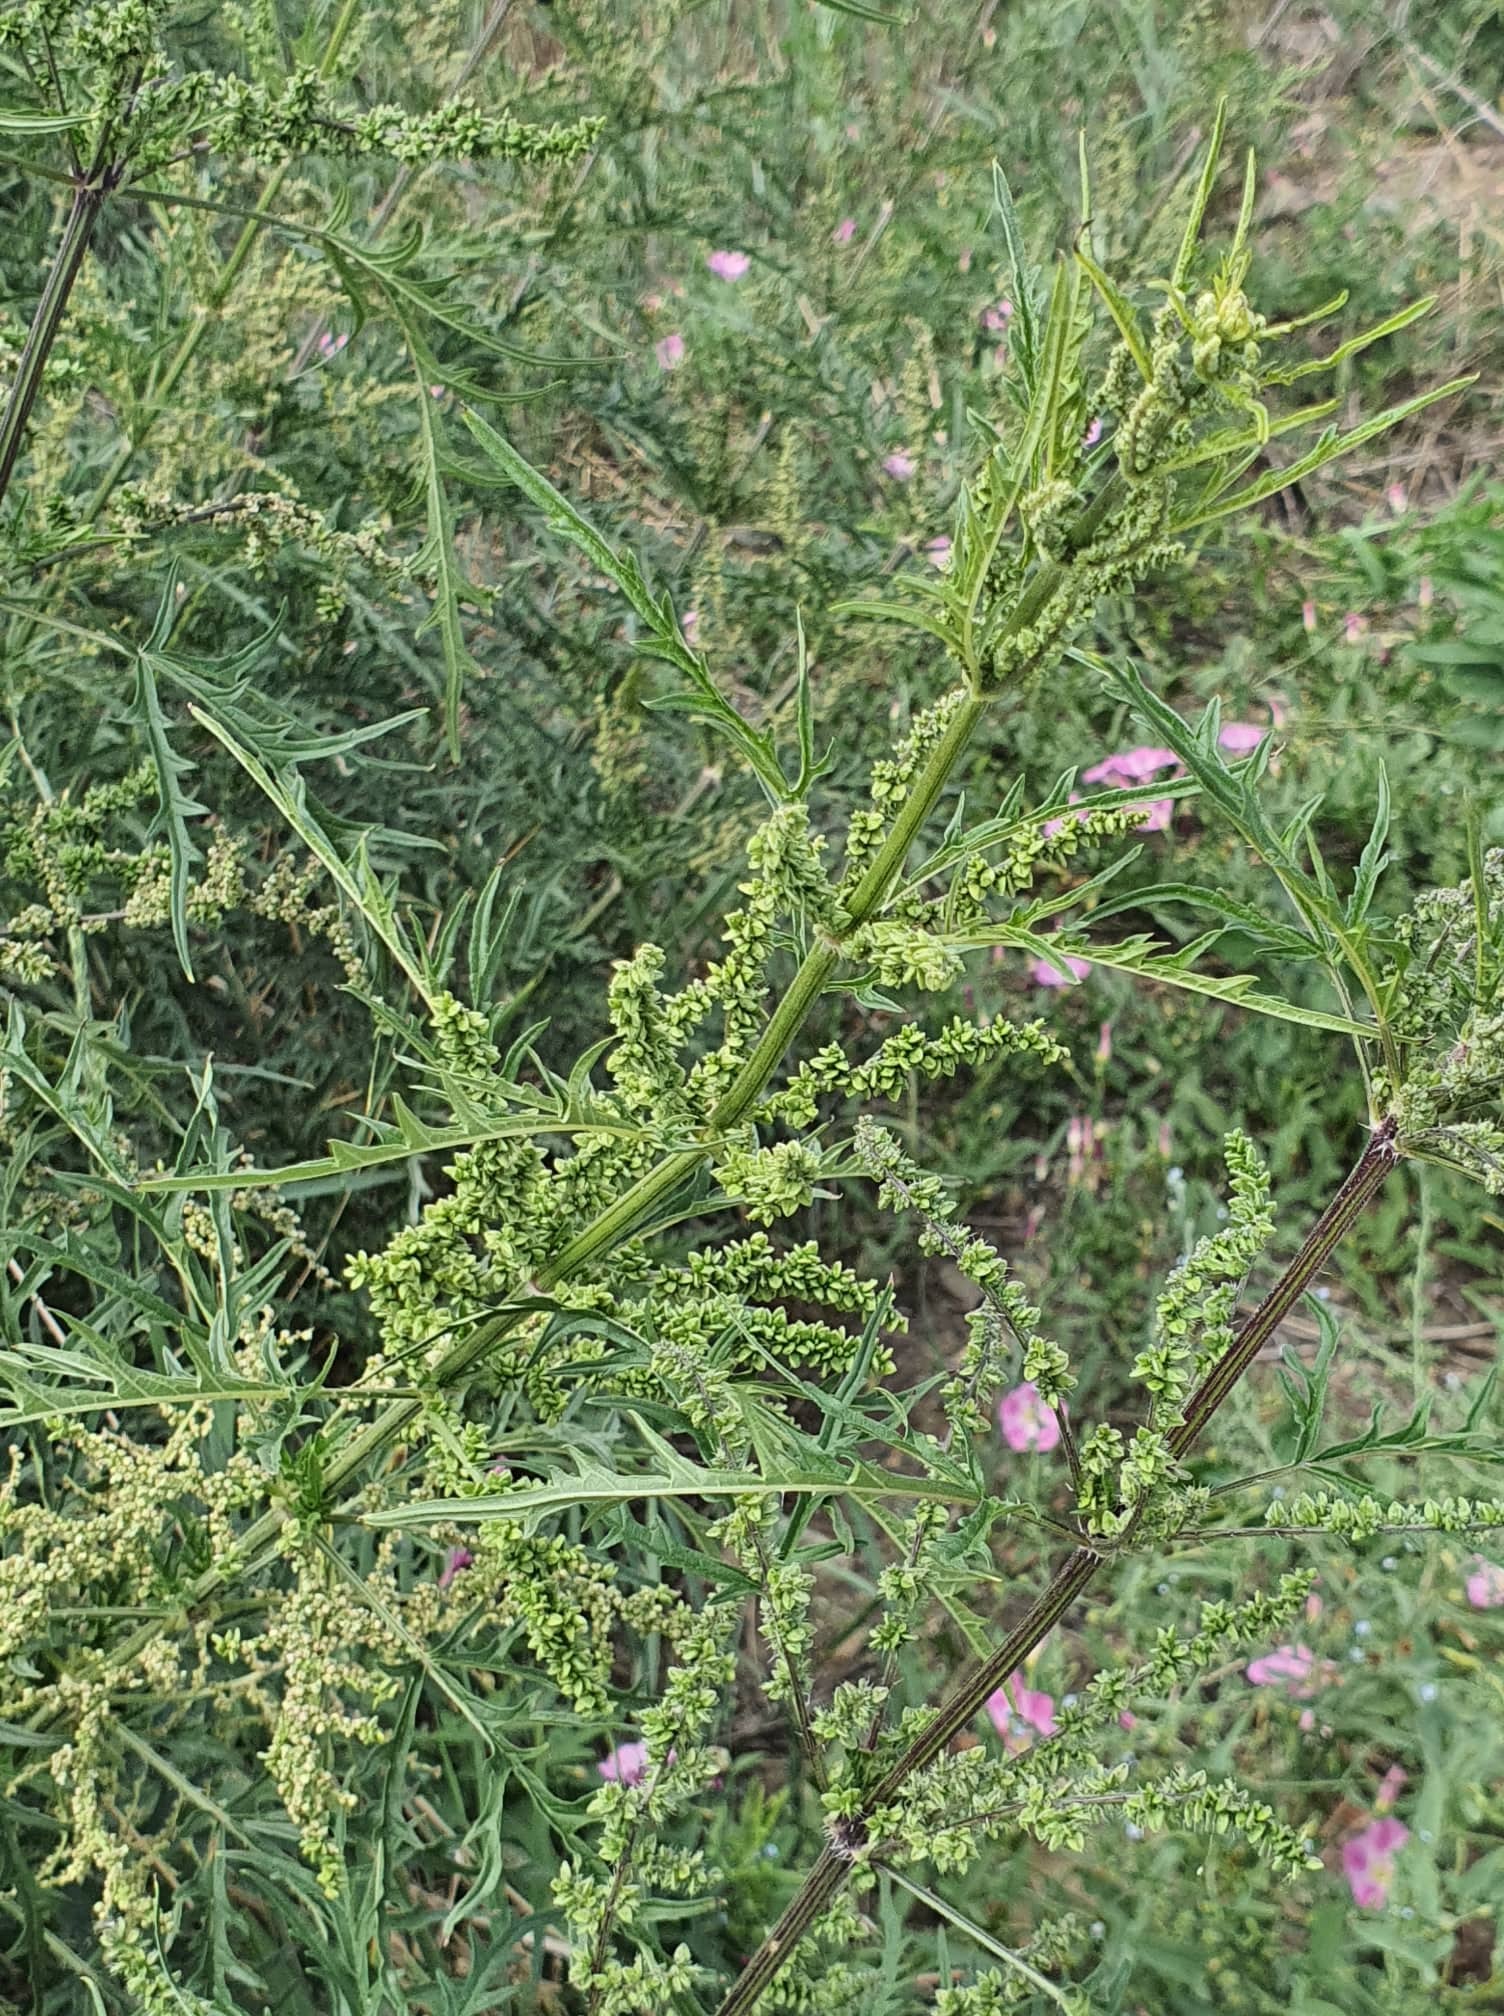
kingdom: Plantae
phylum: Tracheophyta
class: Magnoliopsida
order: Rosales
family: Urticaceae
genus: Urtica
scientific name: Urtica cannabina
